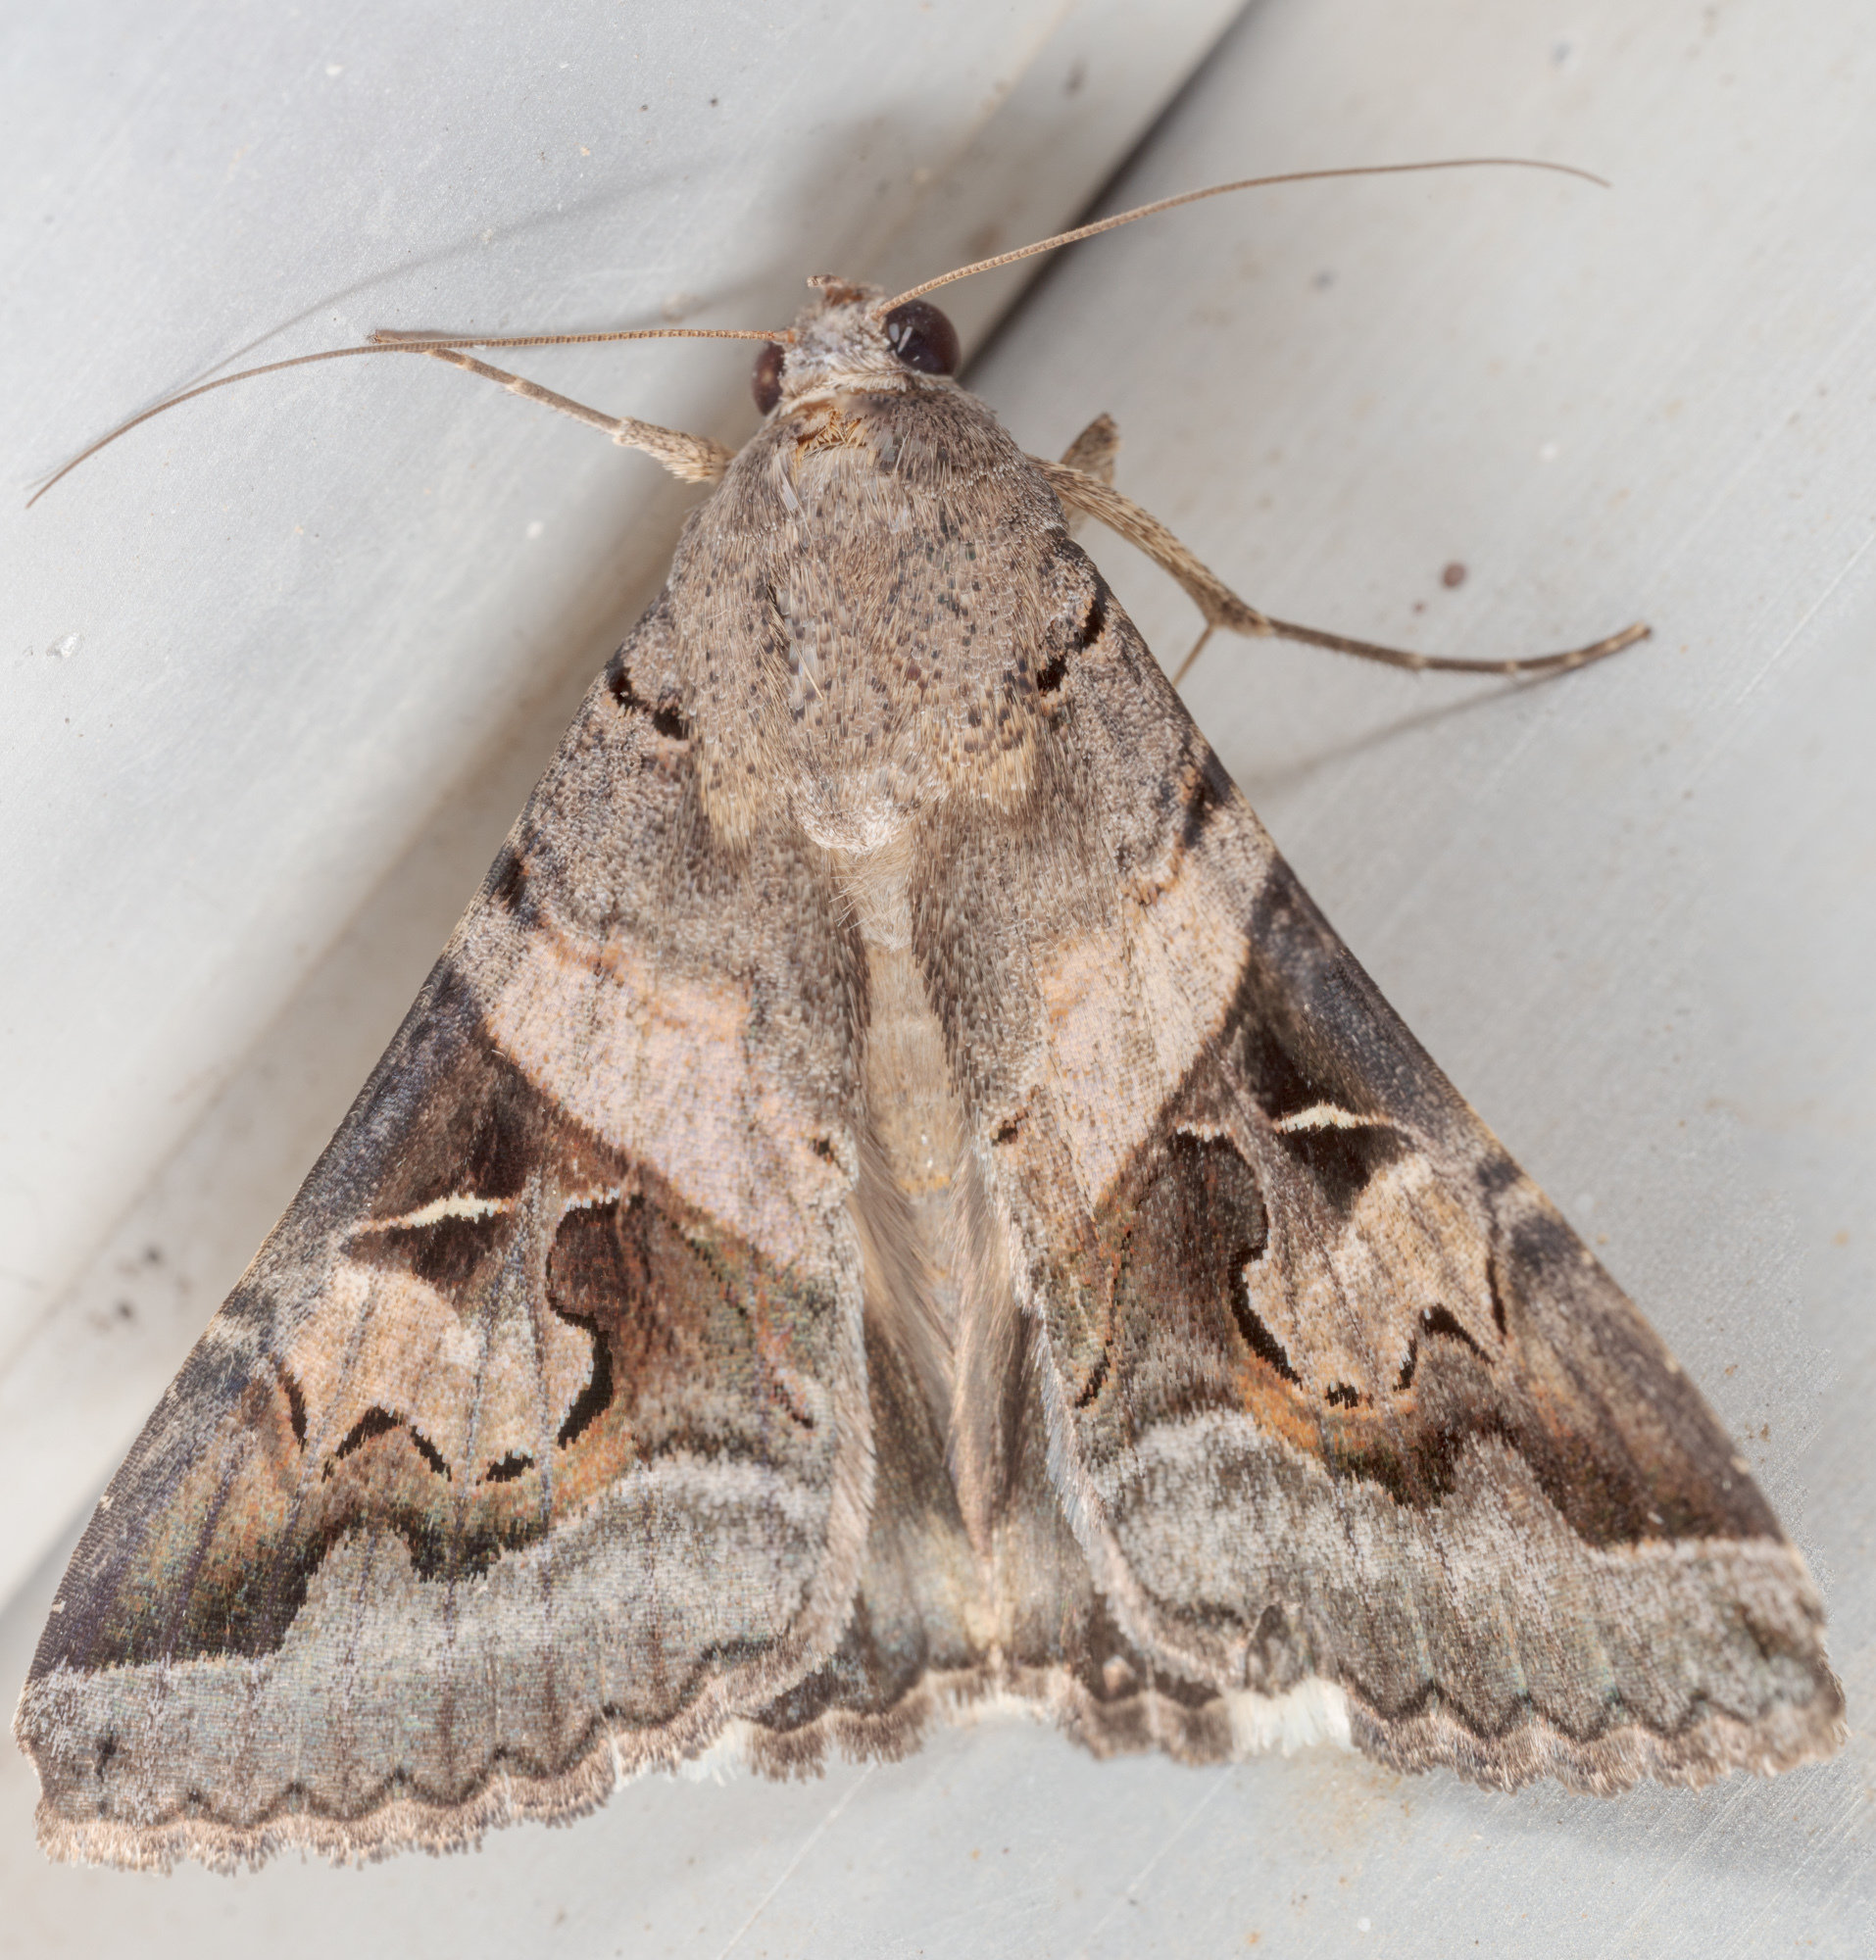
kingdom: Animalia
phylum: Arthropoda
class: Insecta
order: Lepidoptera
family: Erebidae
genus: Melipotis
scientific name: Melipotis indomita
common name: Moth
